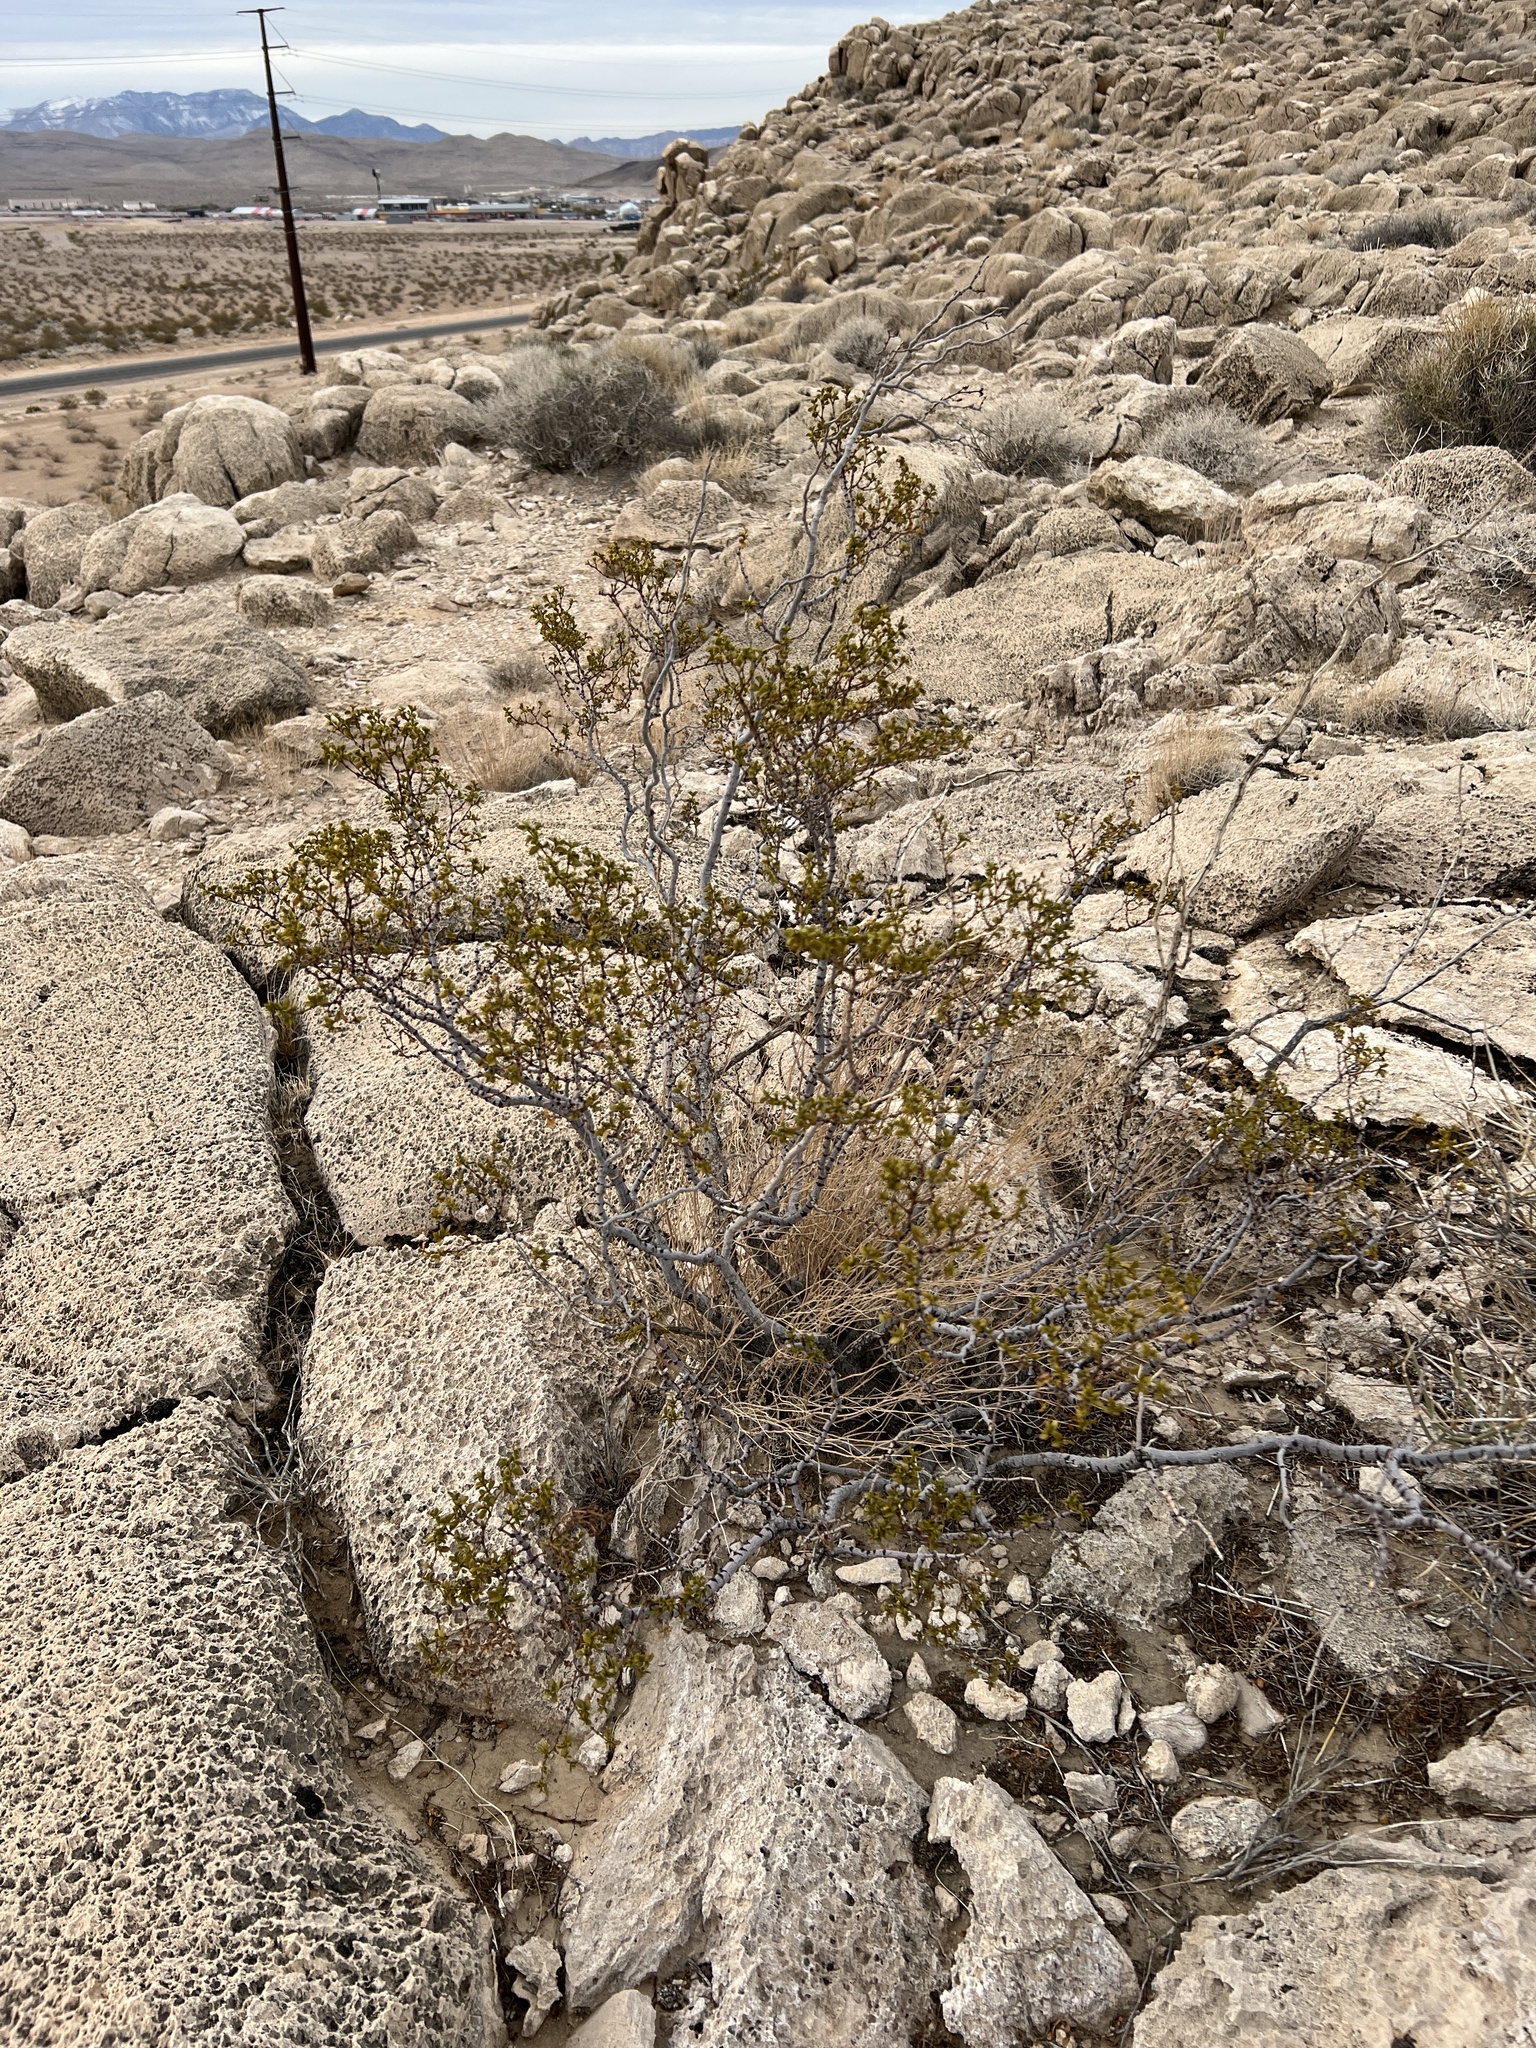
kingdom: Plantae
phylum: Tracheophyta
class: Magnoliopsida
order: Zygophyllales
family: Zygophyllaceae
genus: Larrea
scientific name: Larrea tridentata
